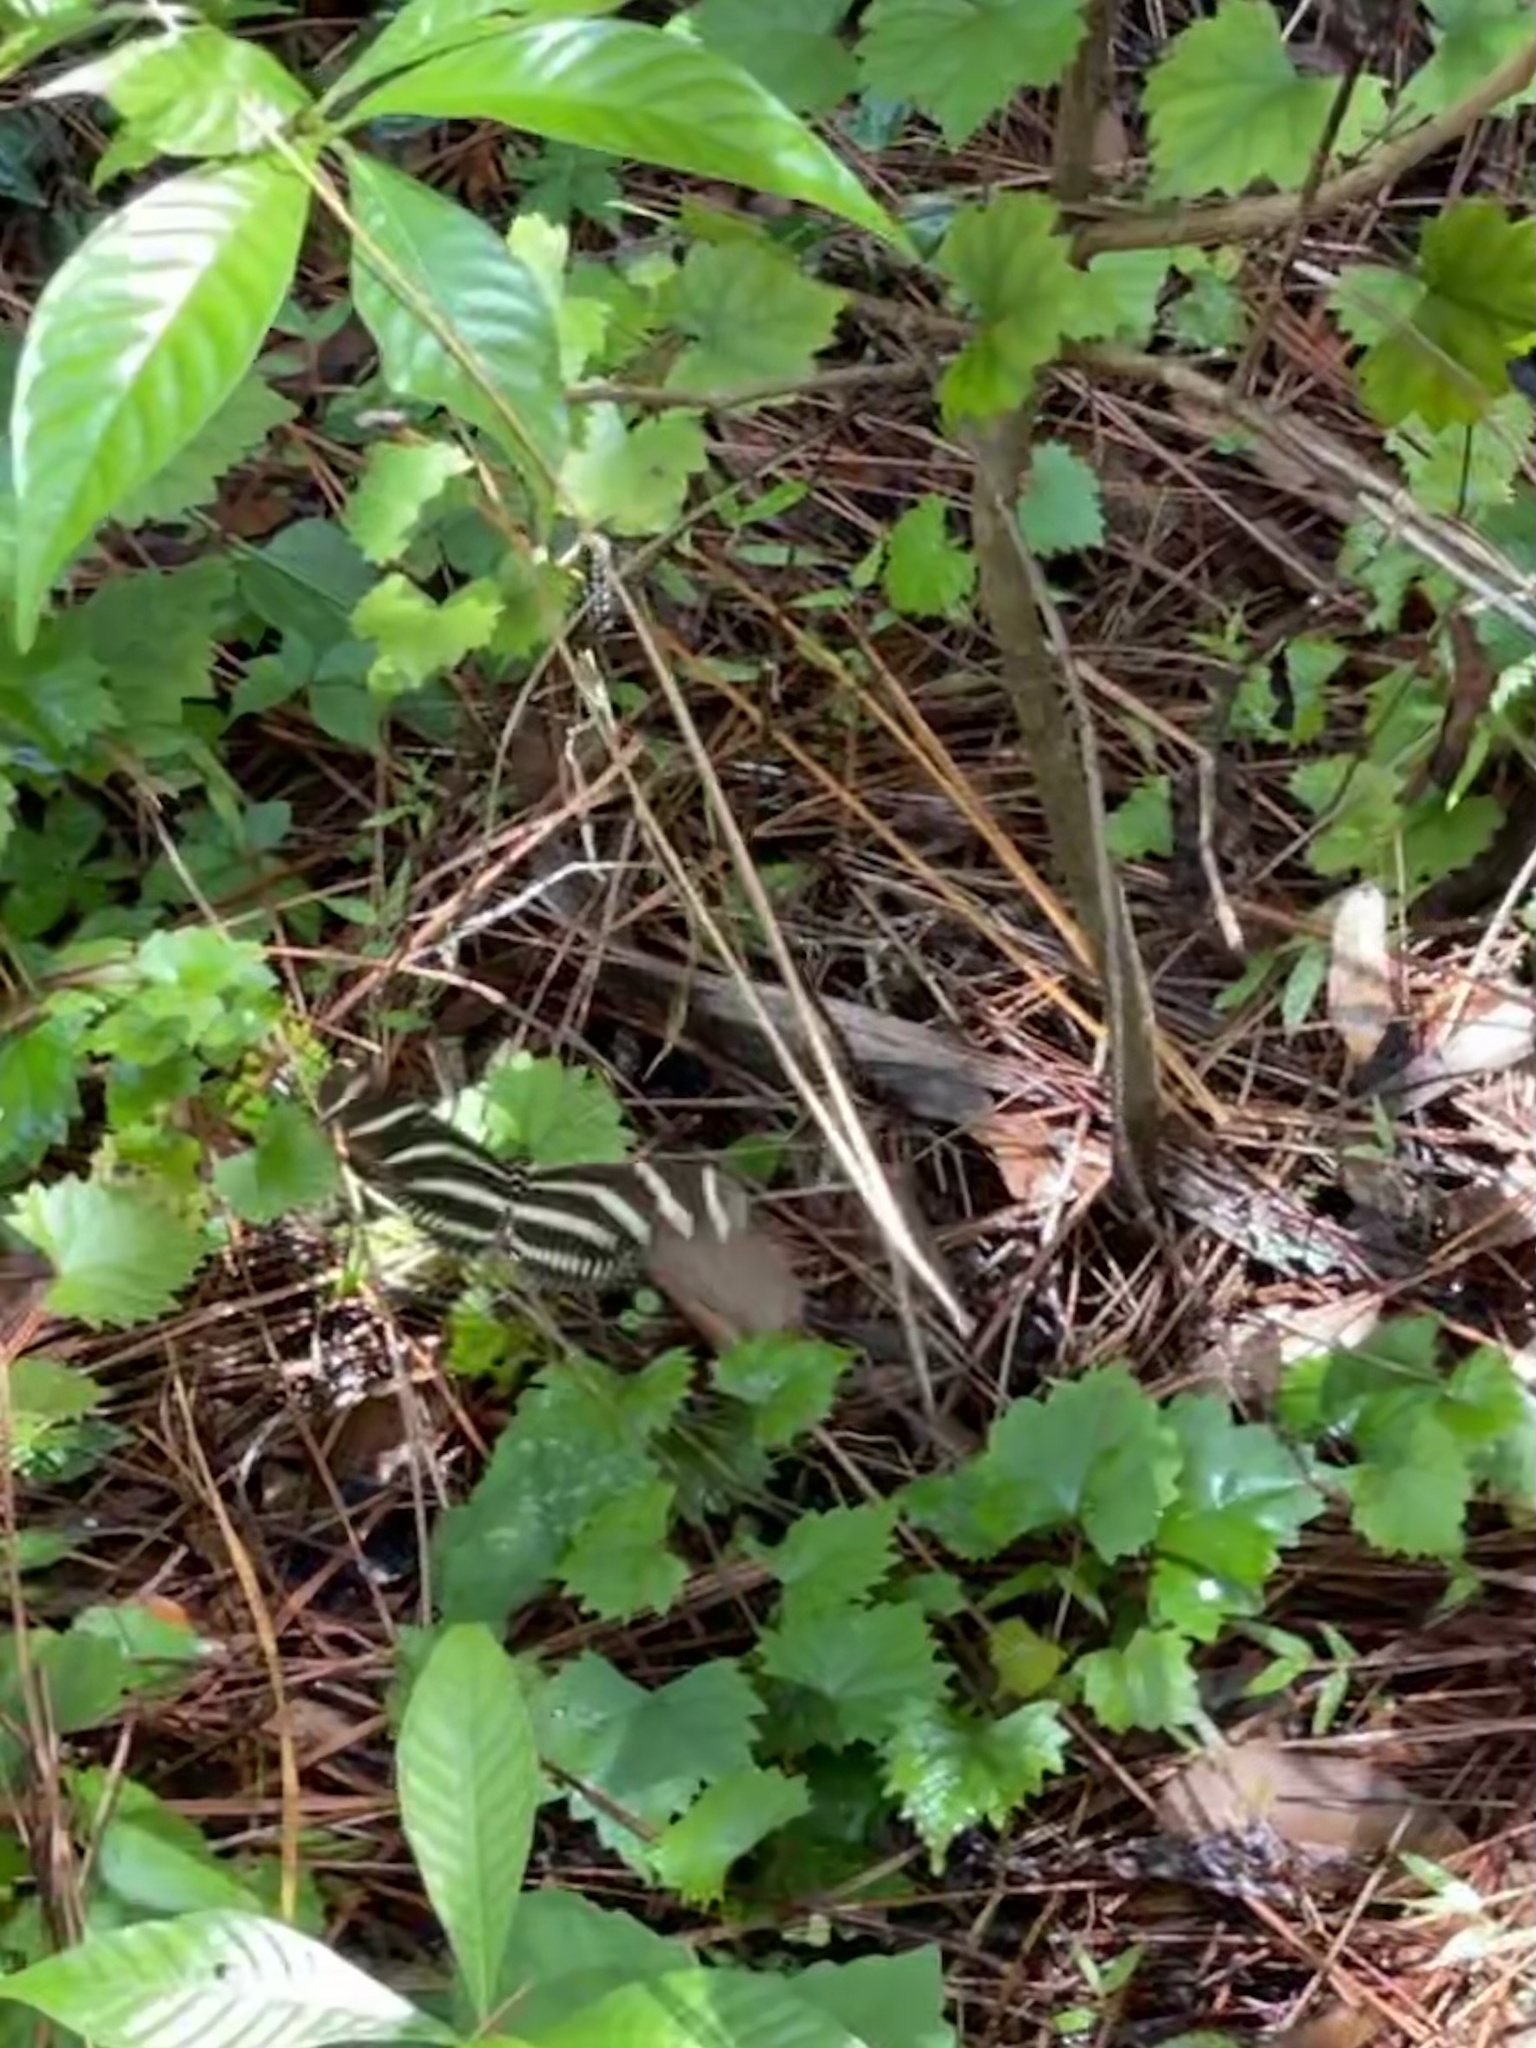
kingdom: Animalia
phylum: Arthropoda
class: Insecta
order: Lepidoptera
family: Nymphalidae
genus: Heliconius
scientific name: Heliconius charithonia
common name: Zebra long wing
